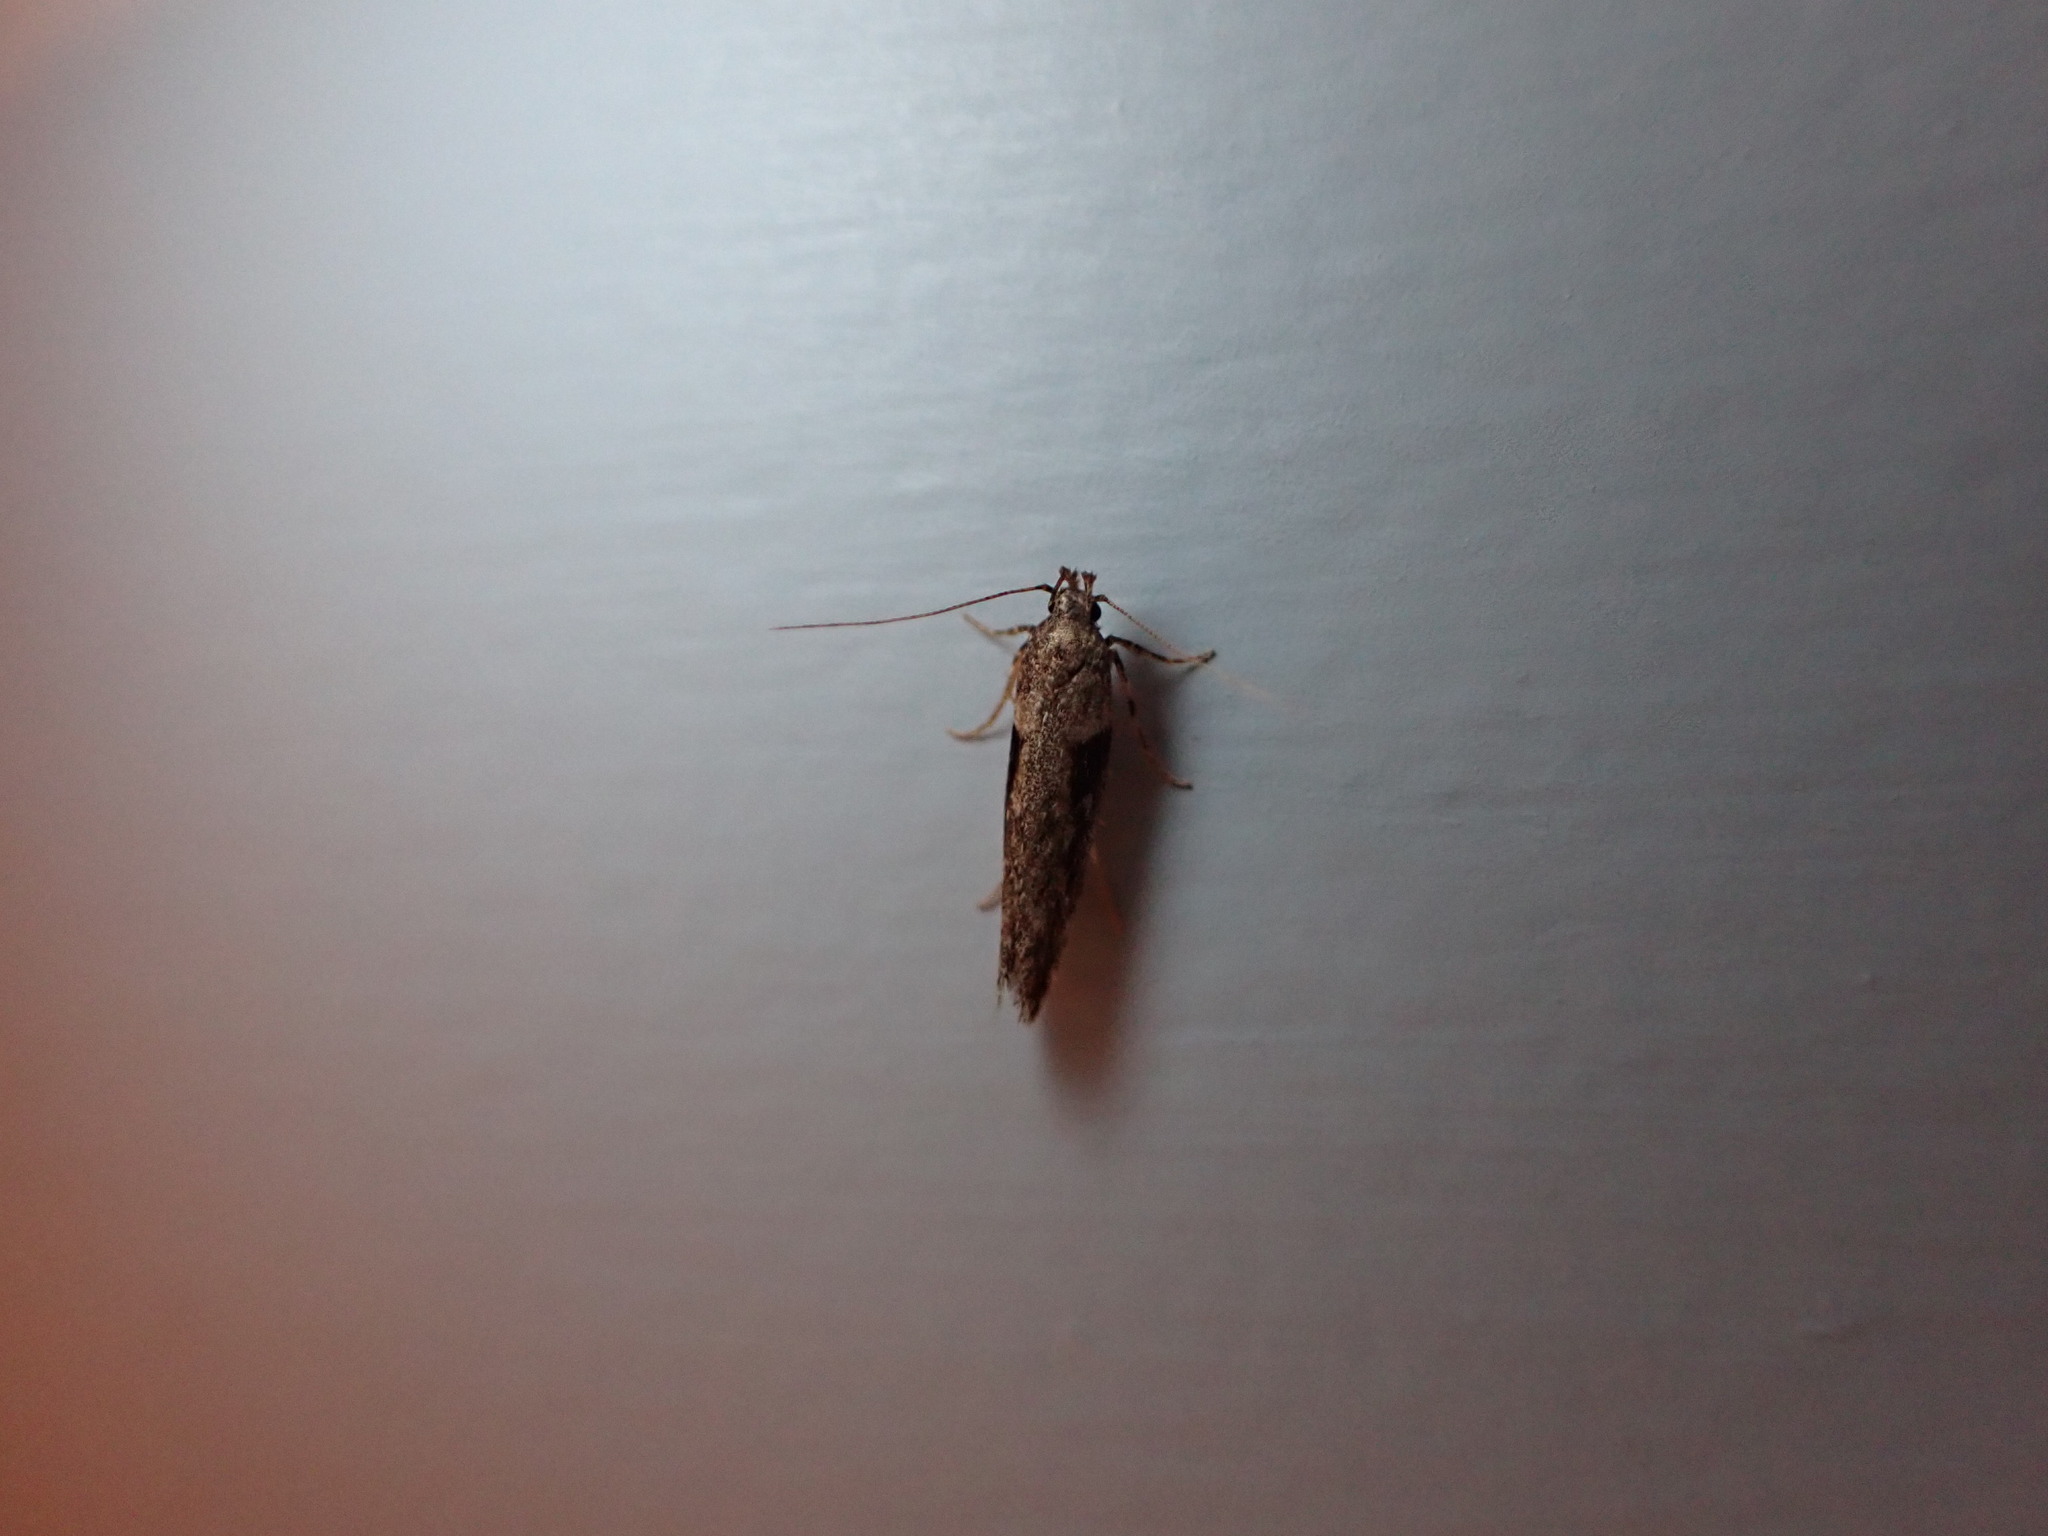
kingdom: Animalia
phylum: Arthropoda
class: Insecta
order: Lepidoptera
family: Gelechiidae
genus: Symmetrischema
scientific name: Symmetrischema tangolias
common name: Moth
